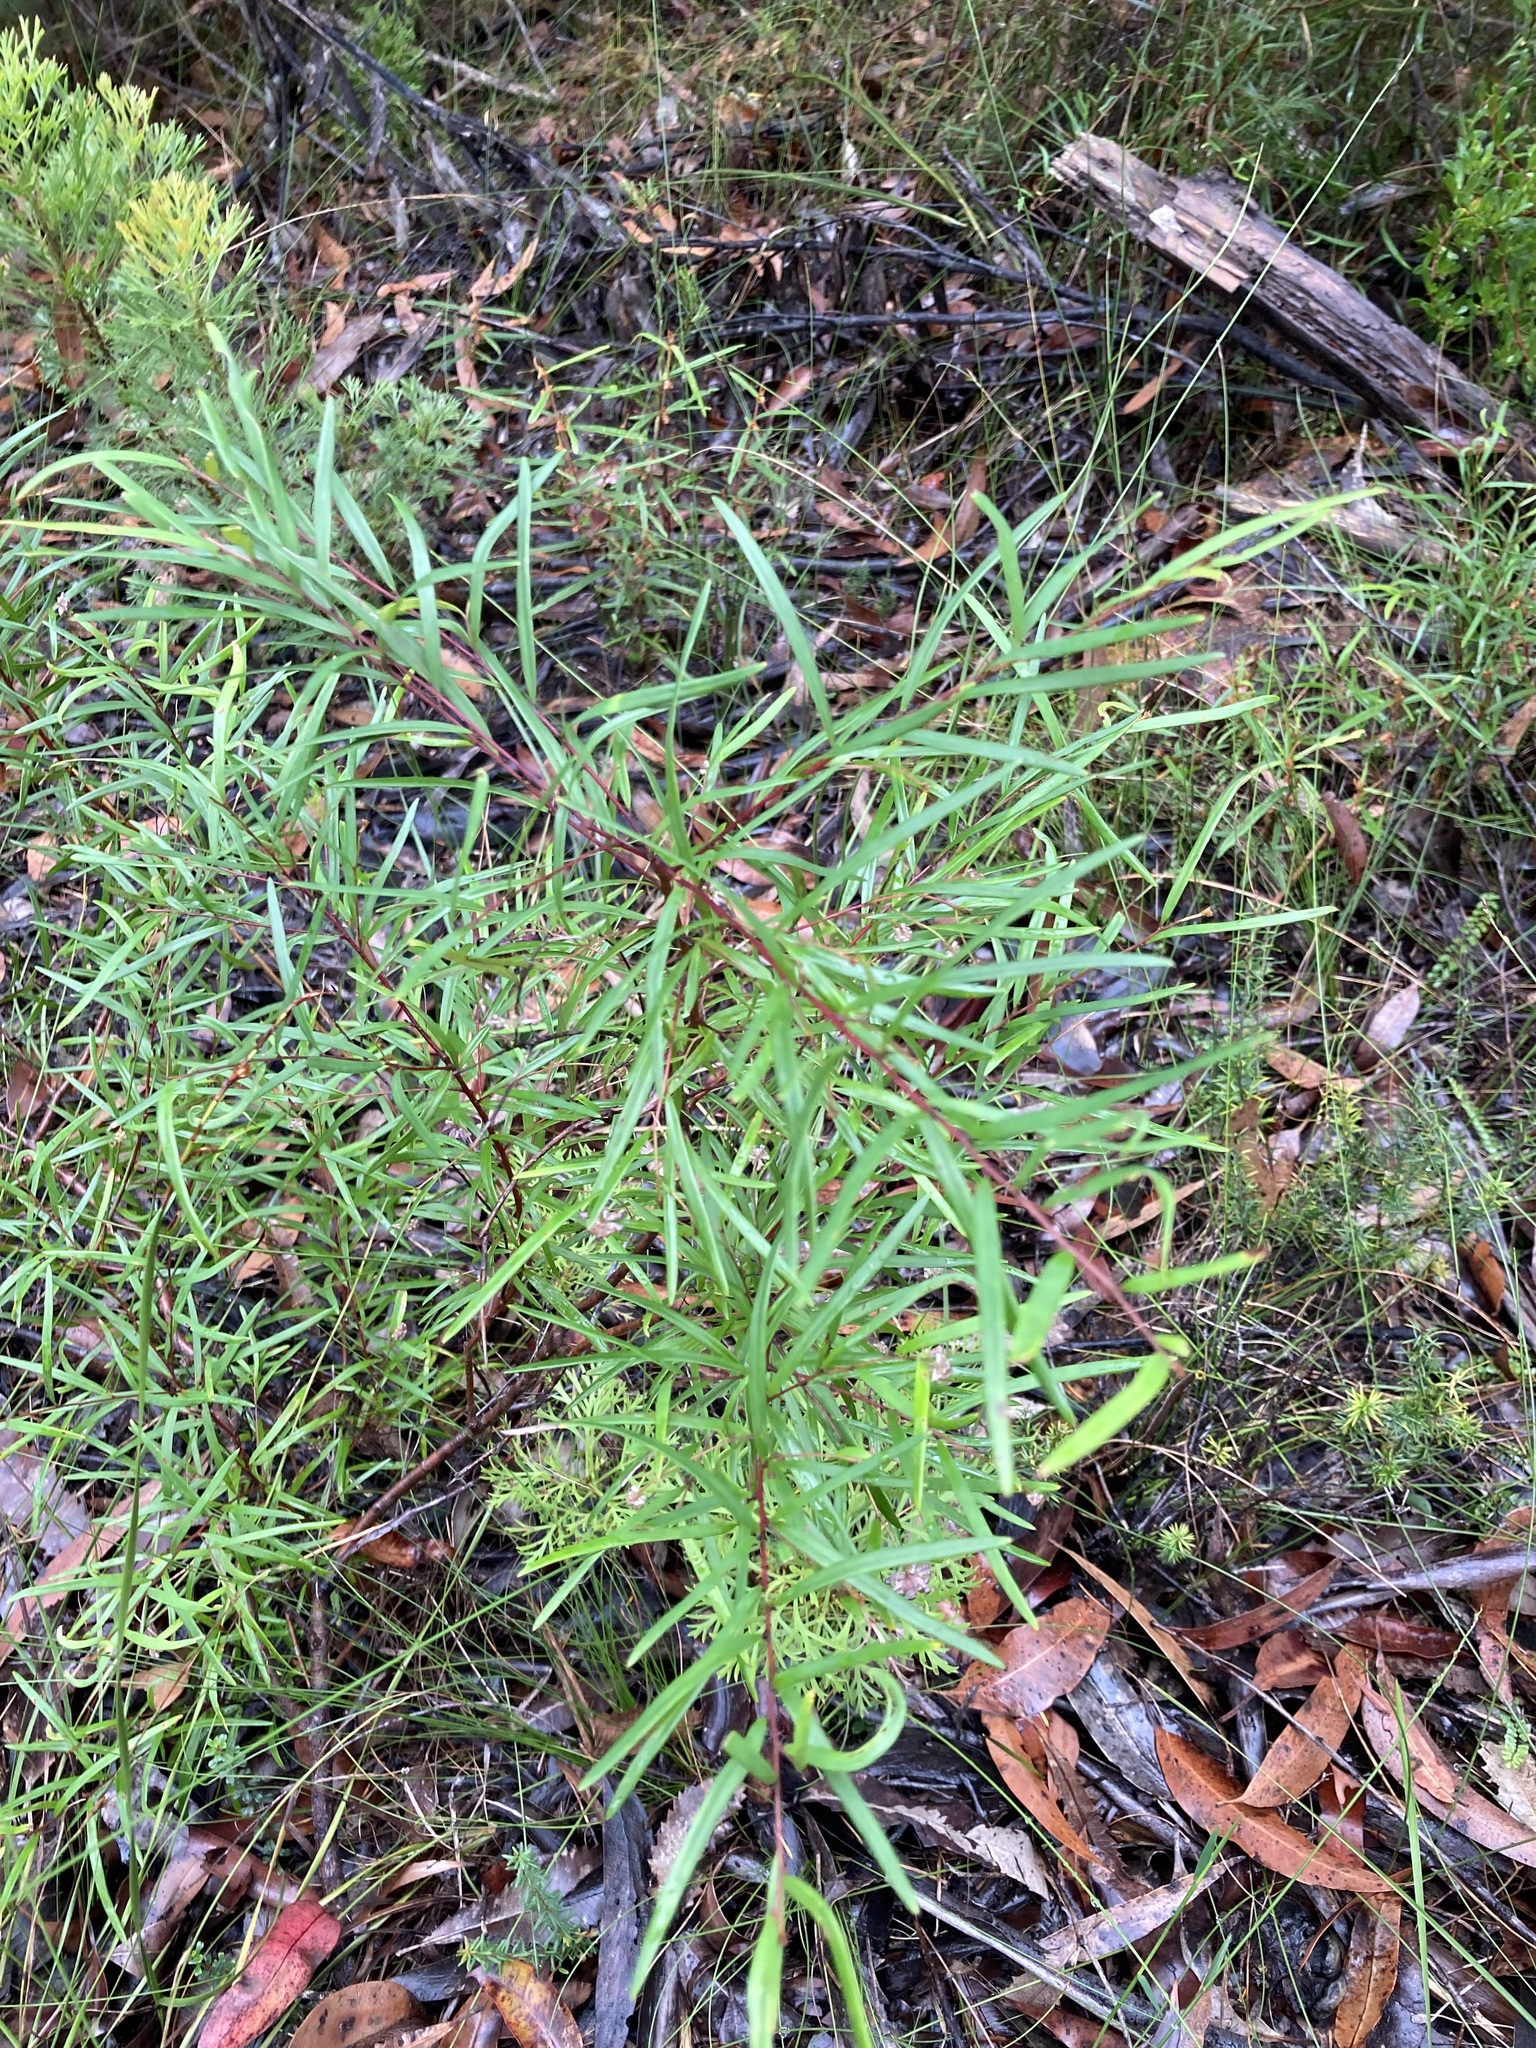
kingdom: Plantae
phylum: Tracheophyta
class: Magnoliopsida
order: Proteales
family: Proteaceae
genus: Grevillea
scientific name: Grevillea diffusa
